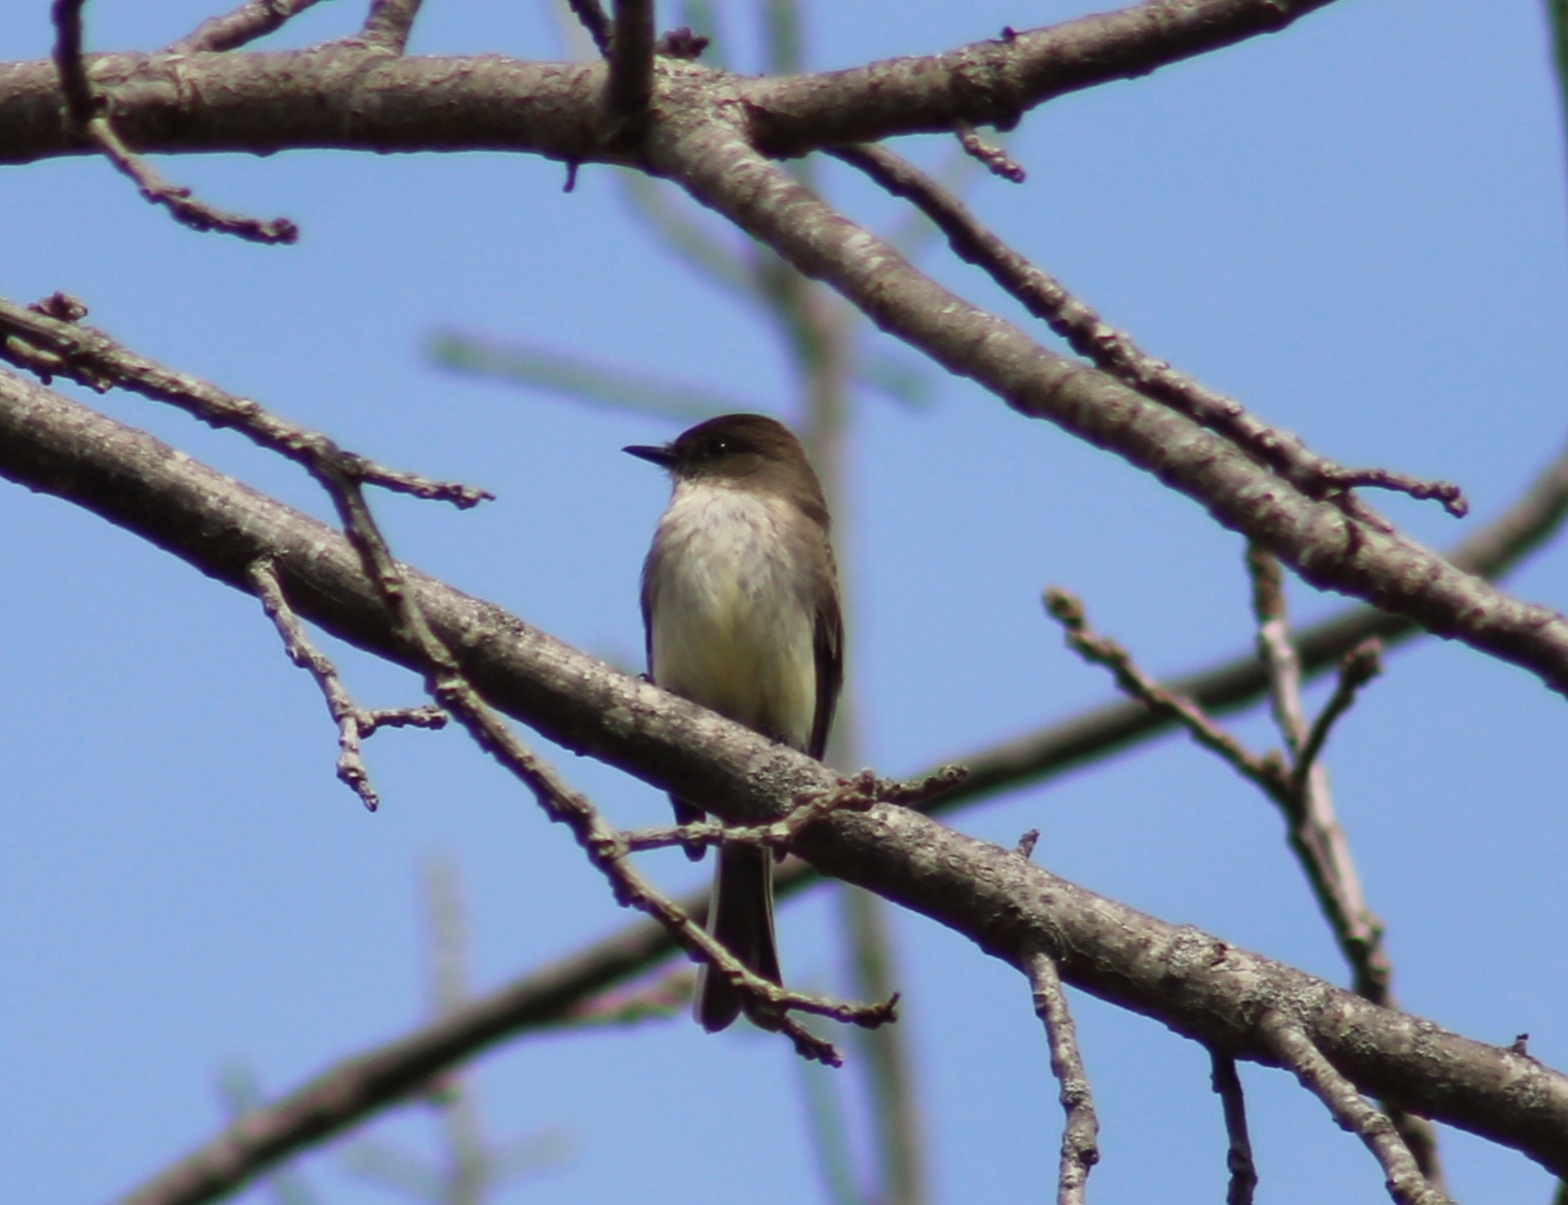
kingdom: Animalia
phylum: Chordata
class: Aves
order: Passeriformes
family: Tyrannidae
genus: Sayornis
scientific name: Sayornis phoebe
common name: Eastern phoebe
